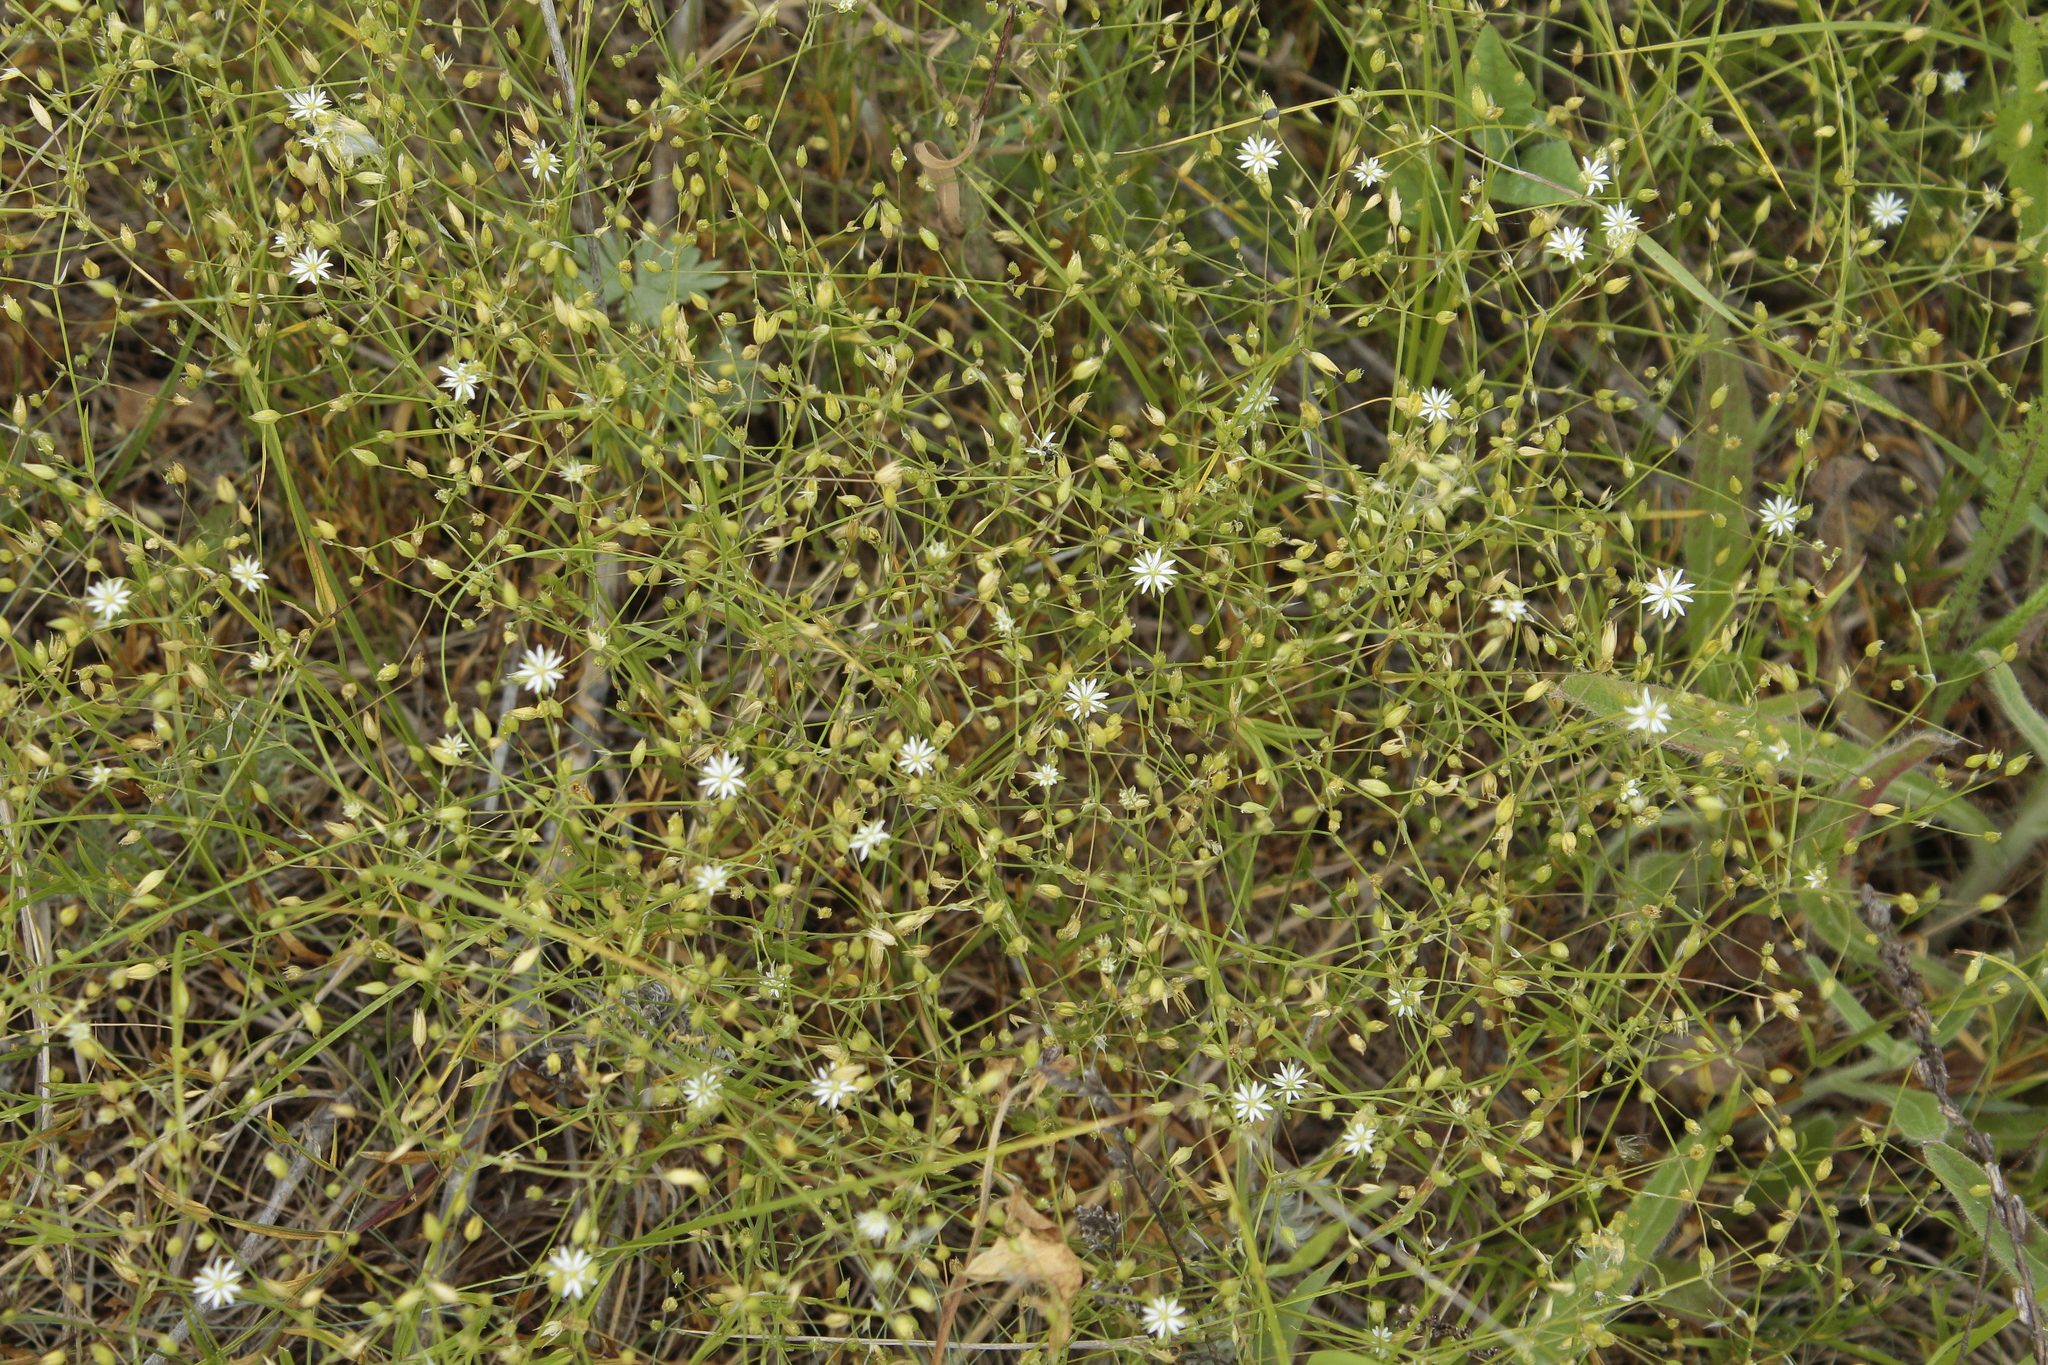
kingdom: Plantae
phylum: Tracheophyta
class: Magnoliopsida
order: Caryophyllales
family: Caryophyllaceae
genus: Stellaria
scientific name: Stellaria graminea
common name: Grass-like starwort
